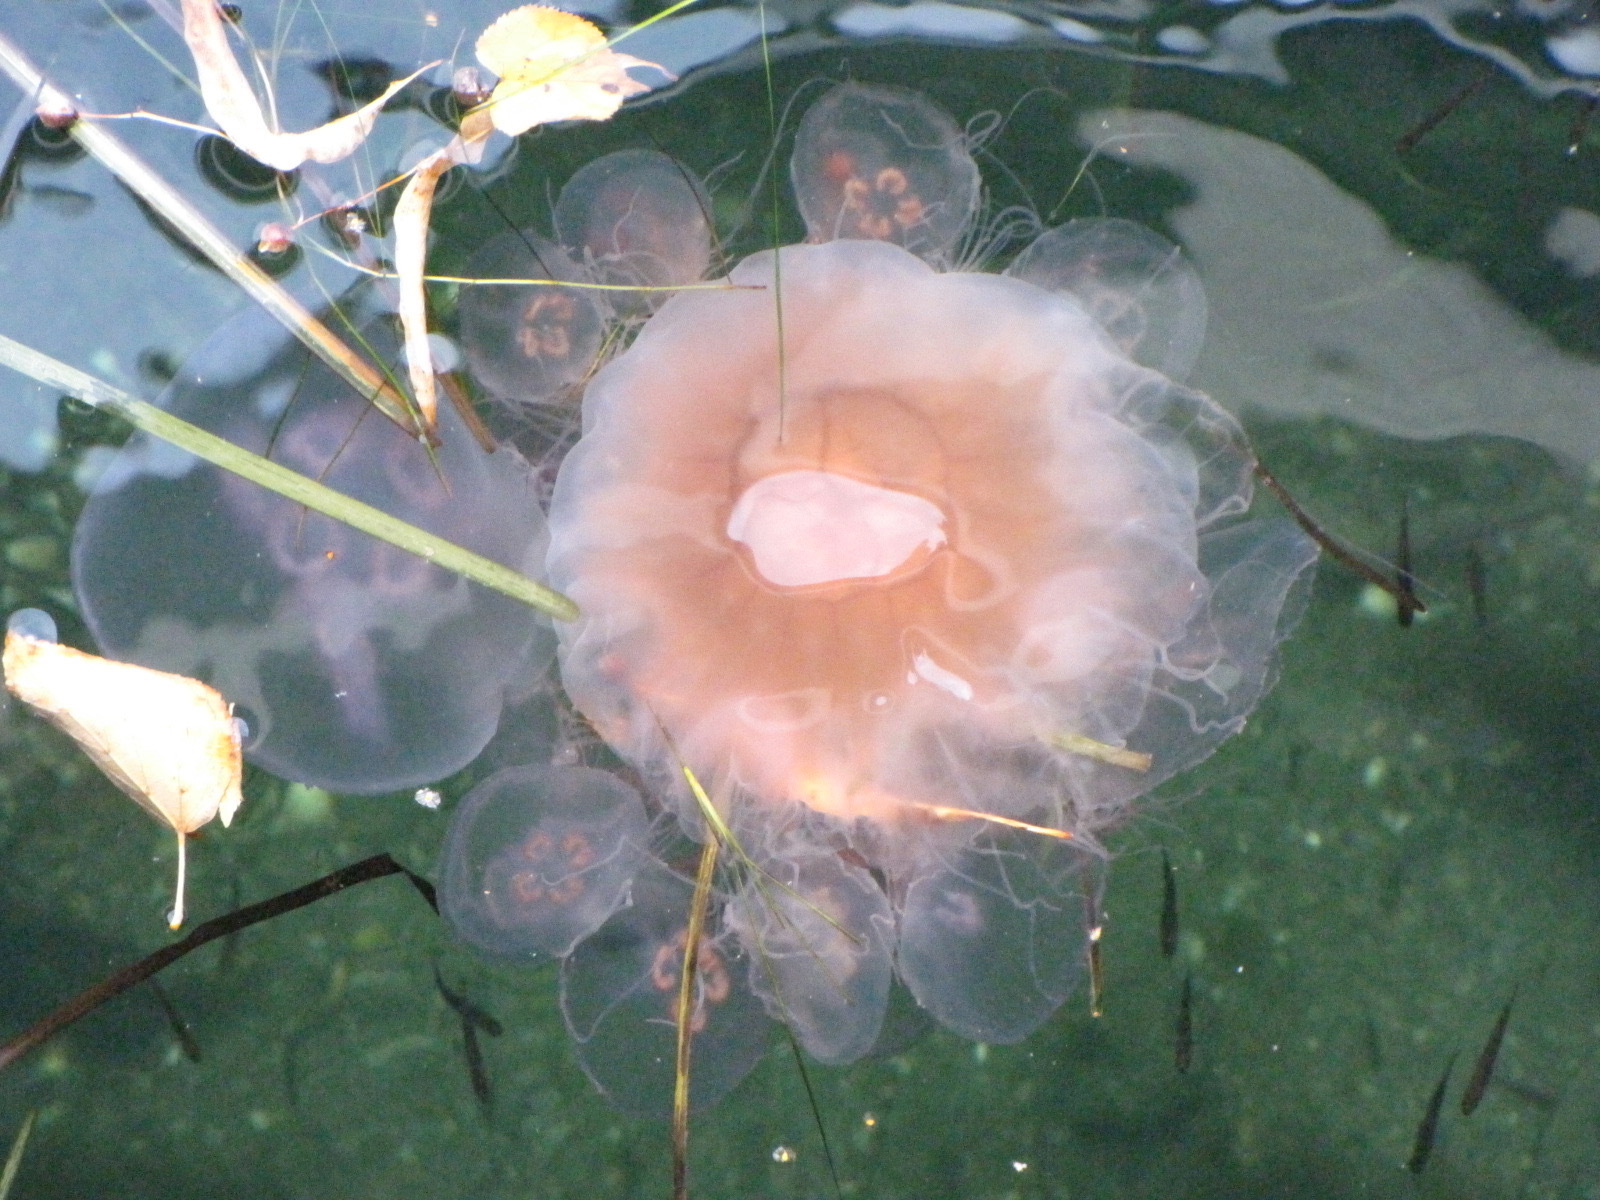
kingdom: Animalia
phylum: Cnidaria
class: Scyphozoa
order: Semaeostomeae
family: Cyaneidae
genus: Cyanea
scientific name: Cyanea capillata
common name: Lion's mane jellyfish
